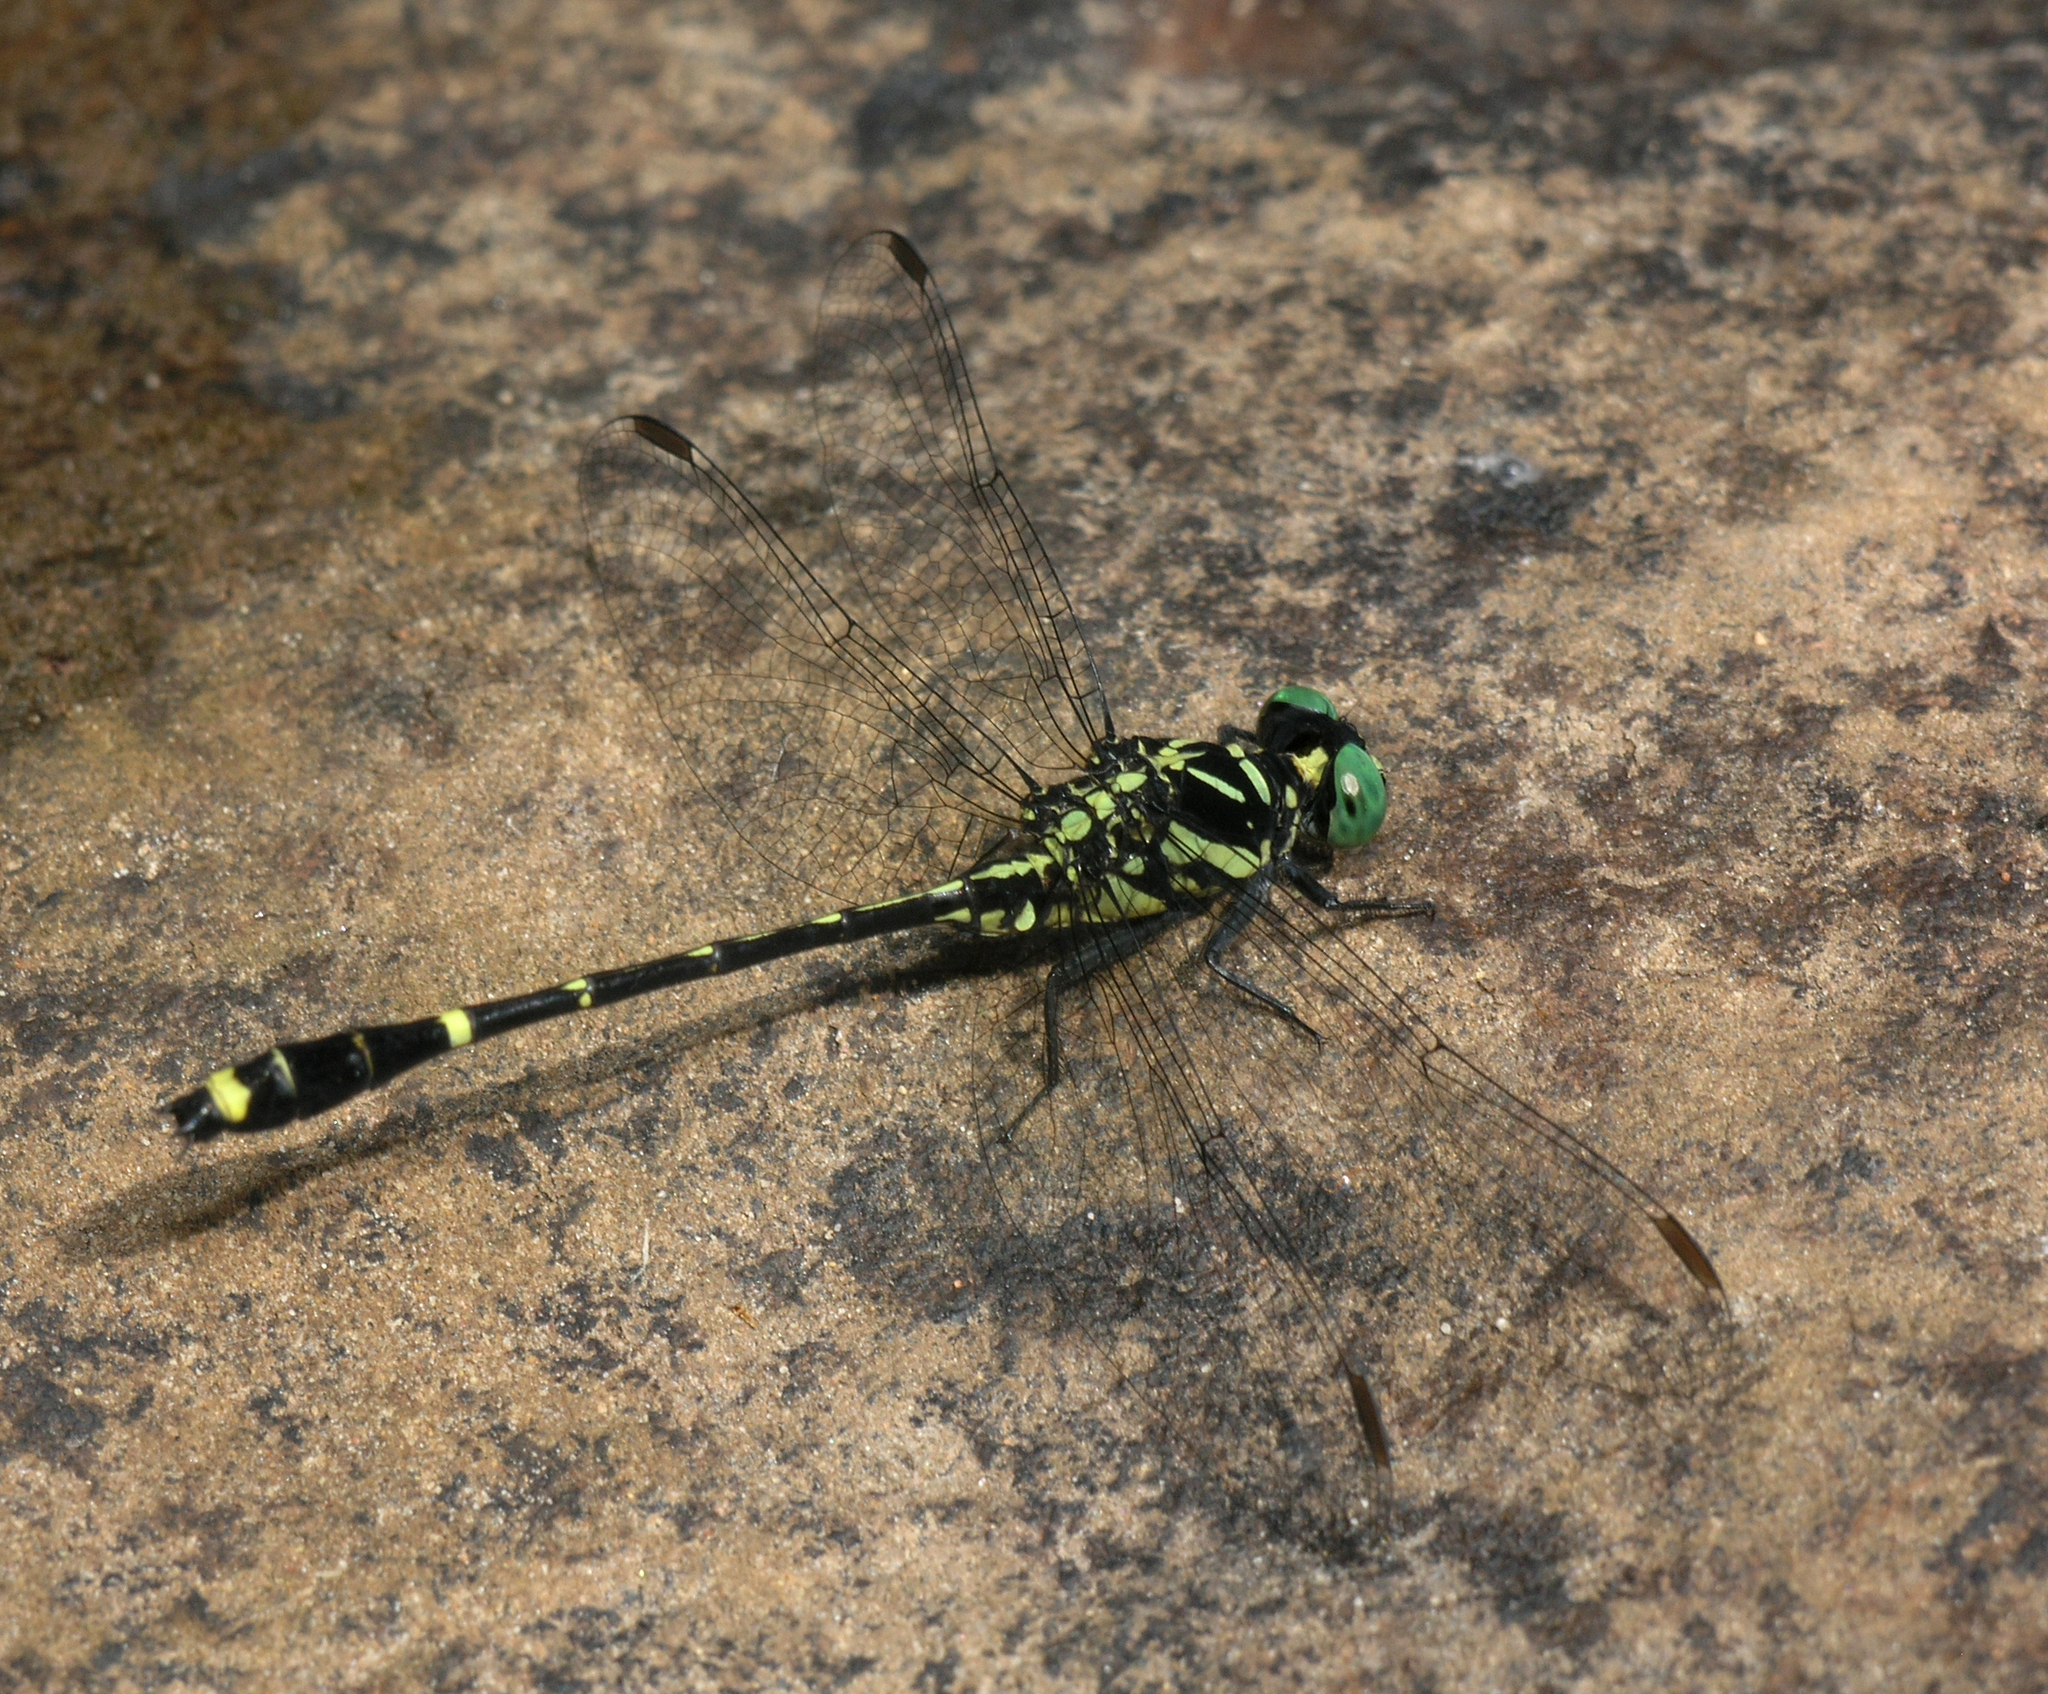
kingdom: Animalia
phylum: Arthropoda
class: Insecta
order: Odonata
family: Gomphidae
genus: Burmagomphus
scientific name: Burmagomphus divaricatus
